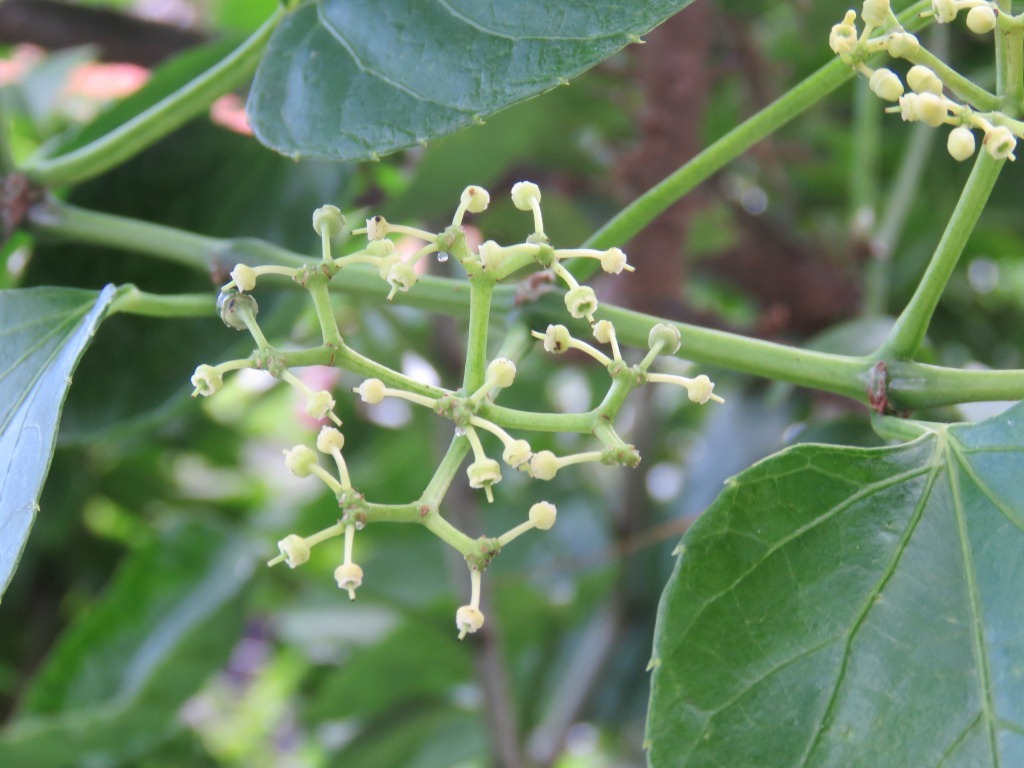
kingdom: Plantae
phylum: Tracheophyta
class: Magnoliopsida
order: Vitales
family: Vitaceae
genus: Cissus
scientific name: Cissus verticillata
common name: Princess vine
